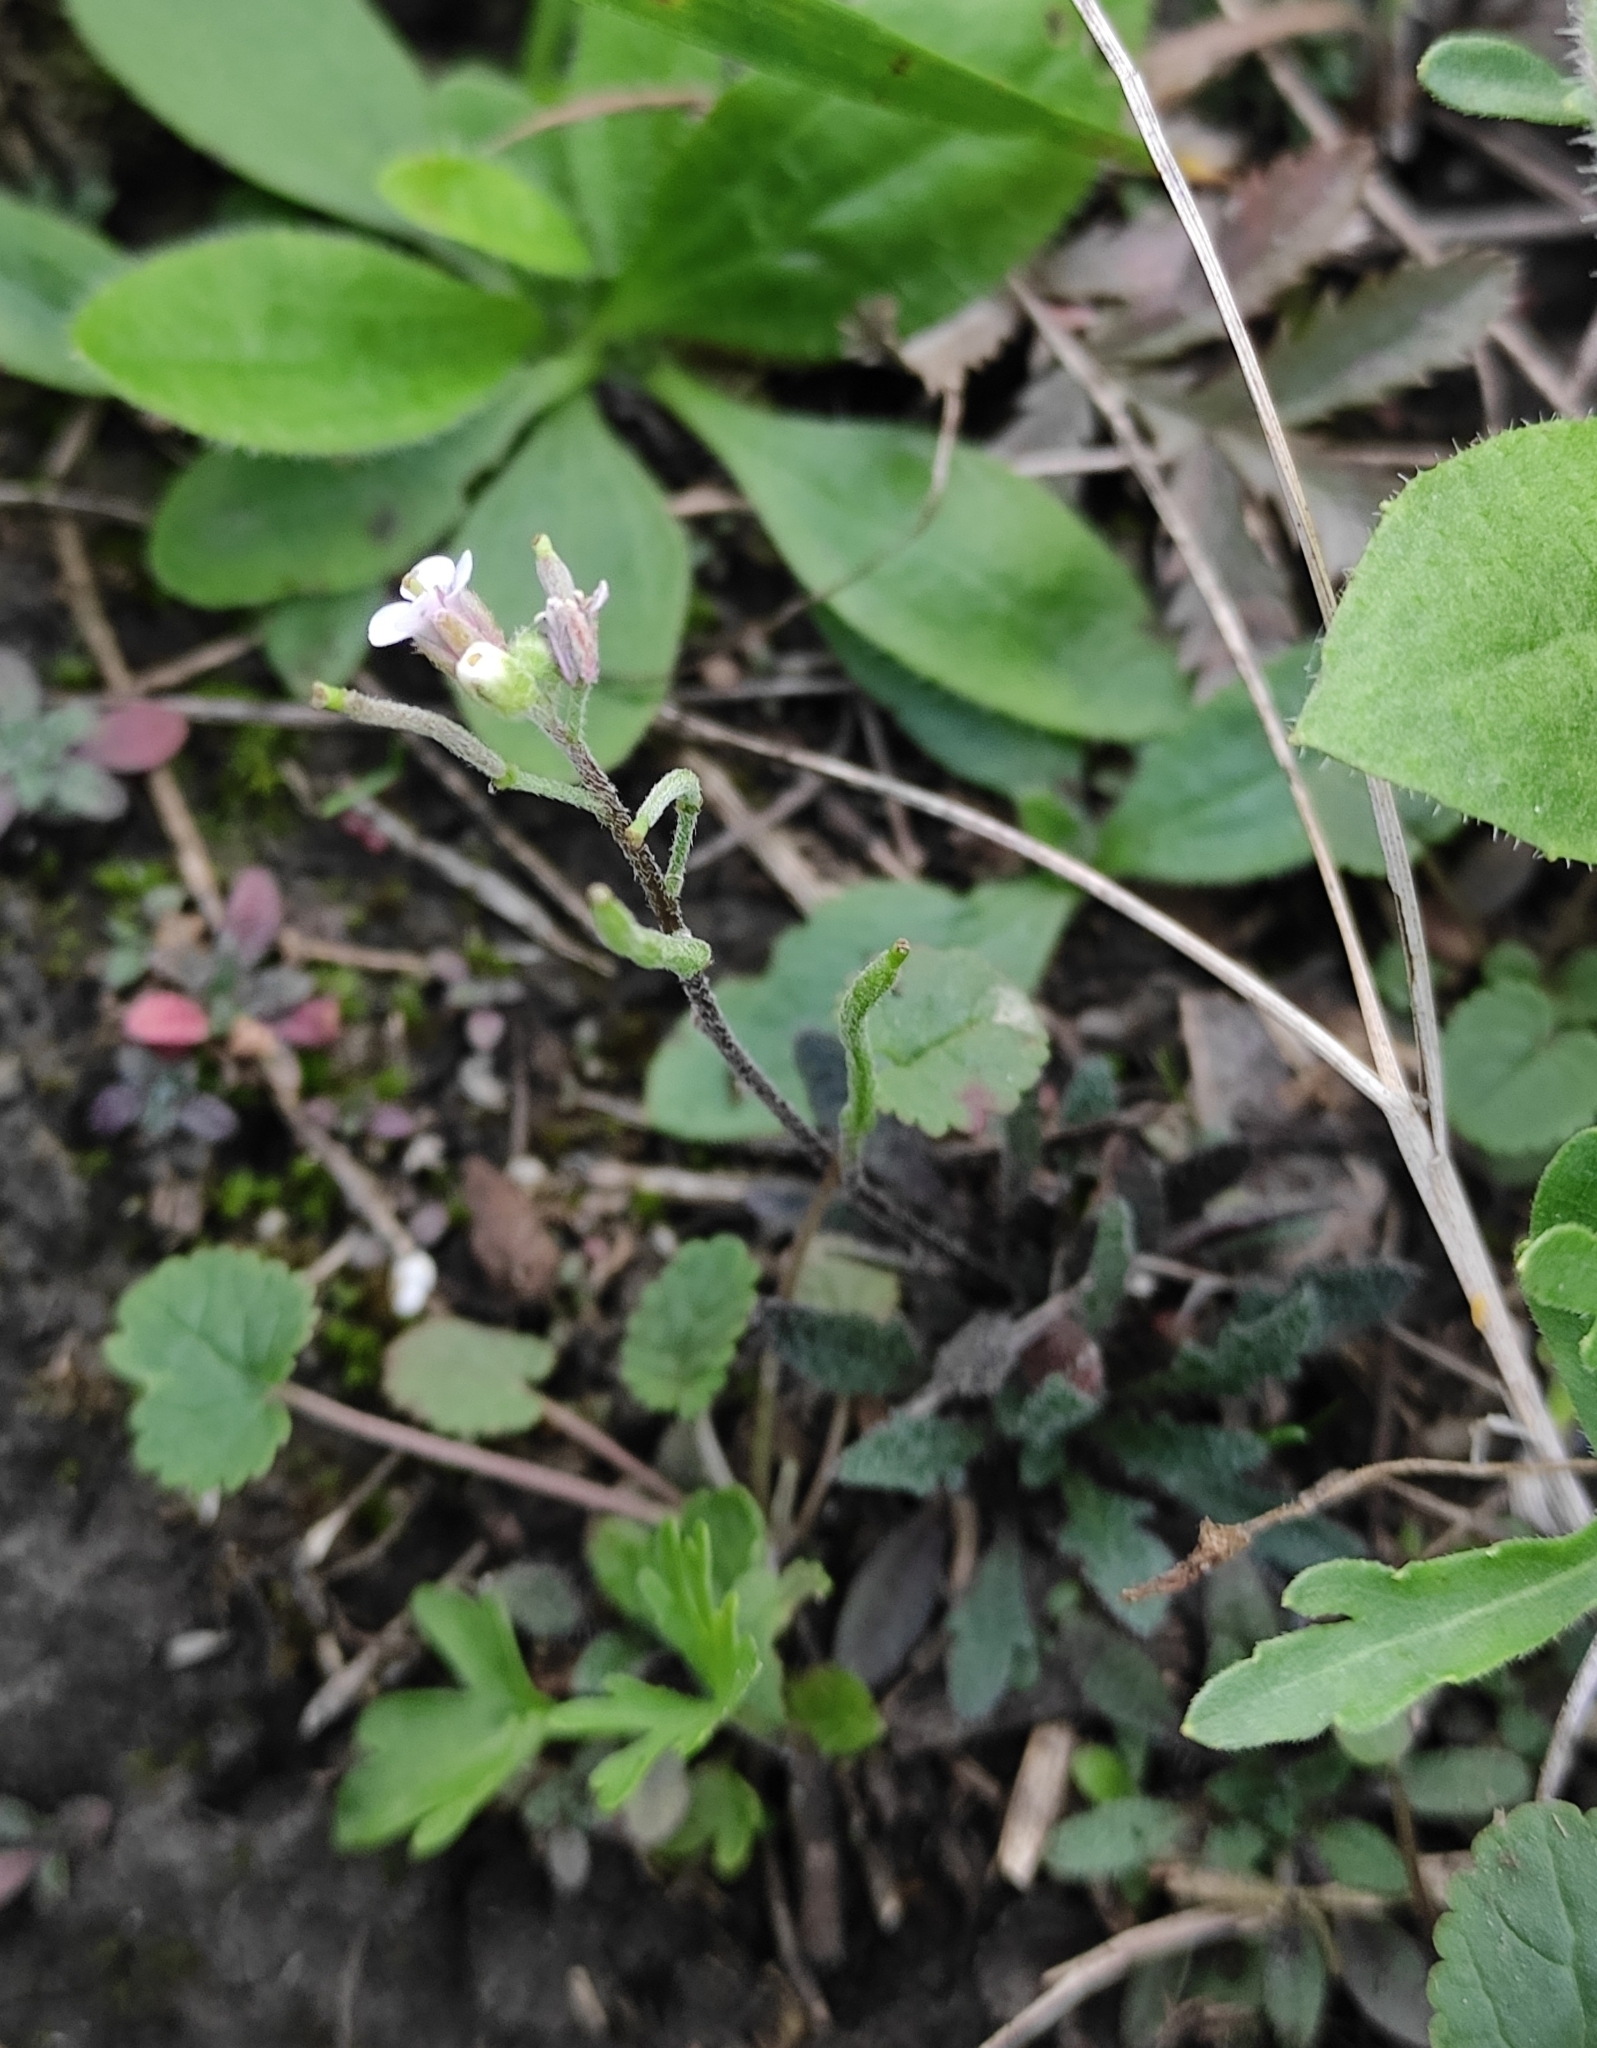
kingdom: Plantae
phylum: Tracheophyta
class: Magnoliopsida
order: Brassicales
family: Brassicaceae
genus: Braya
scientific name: Braya humilis
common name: Alpine northern rockcress
